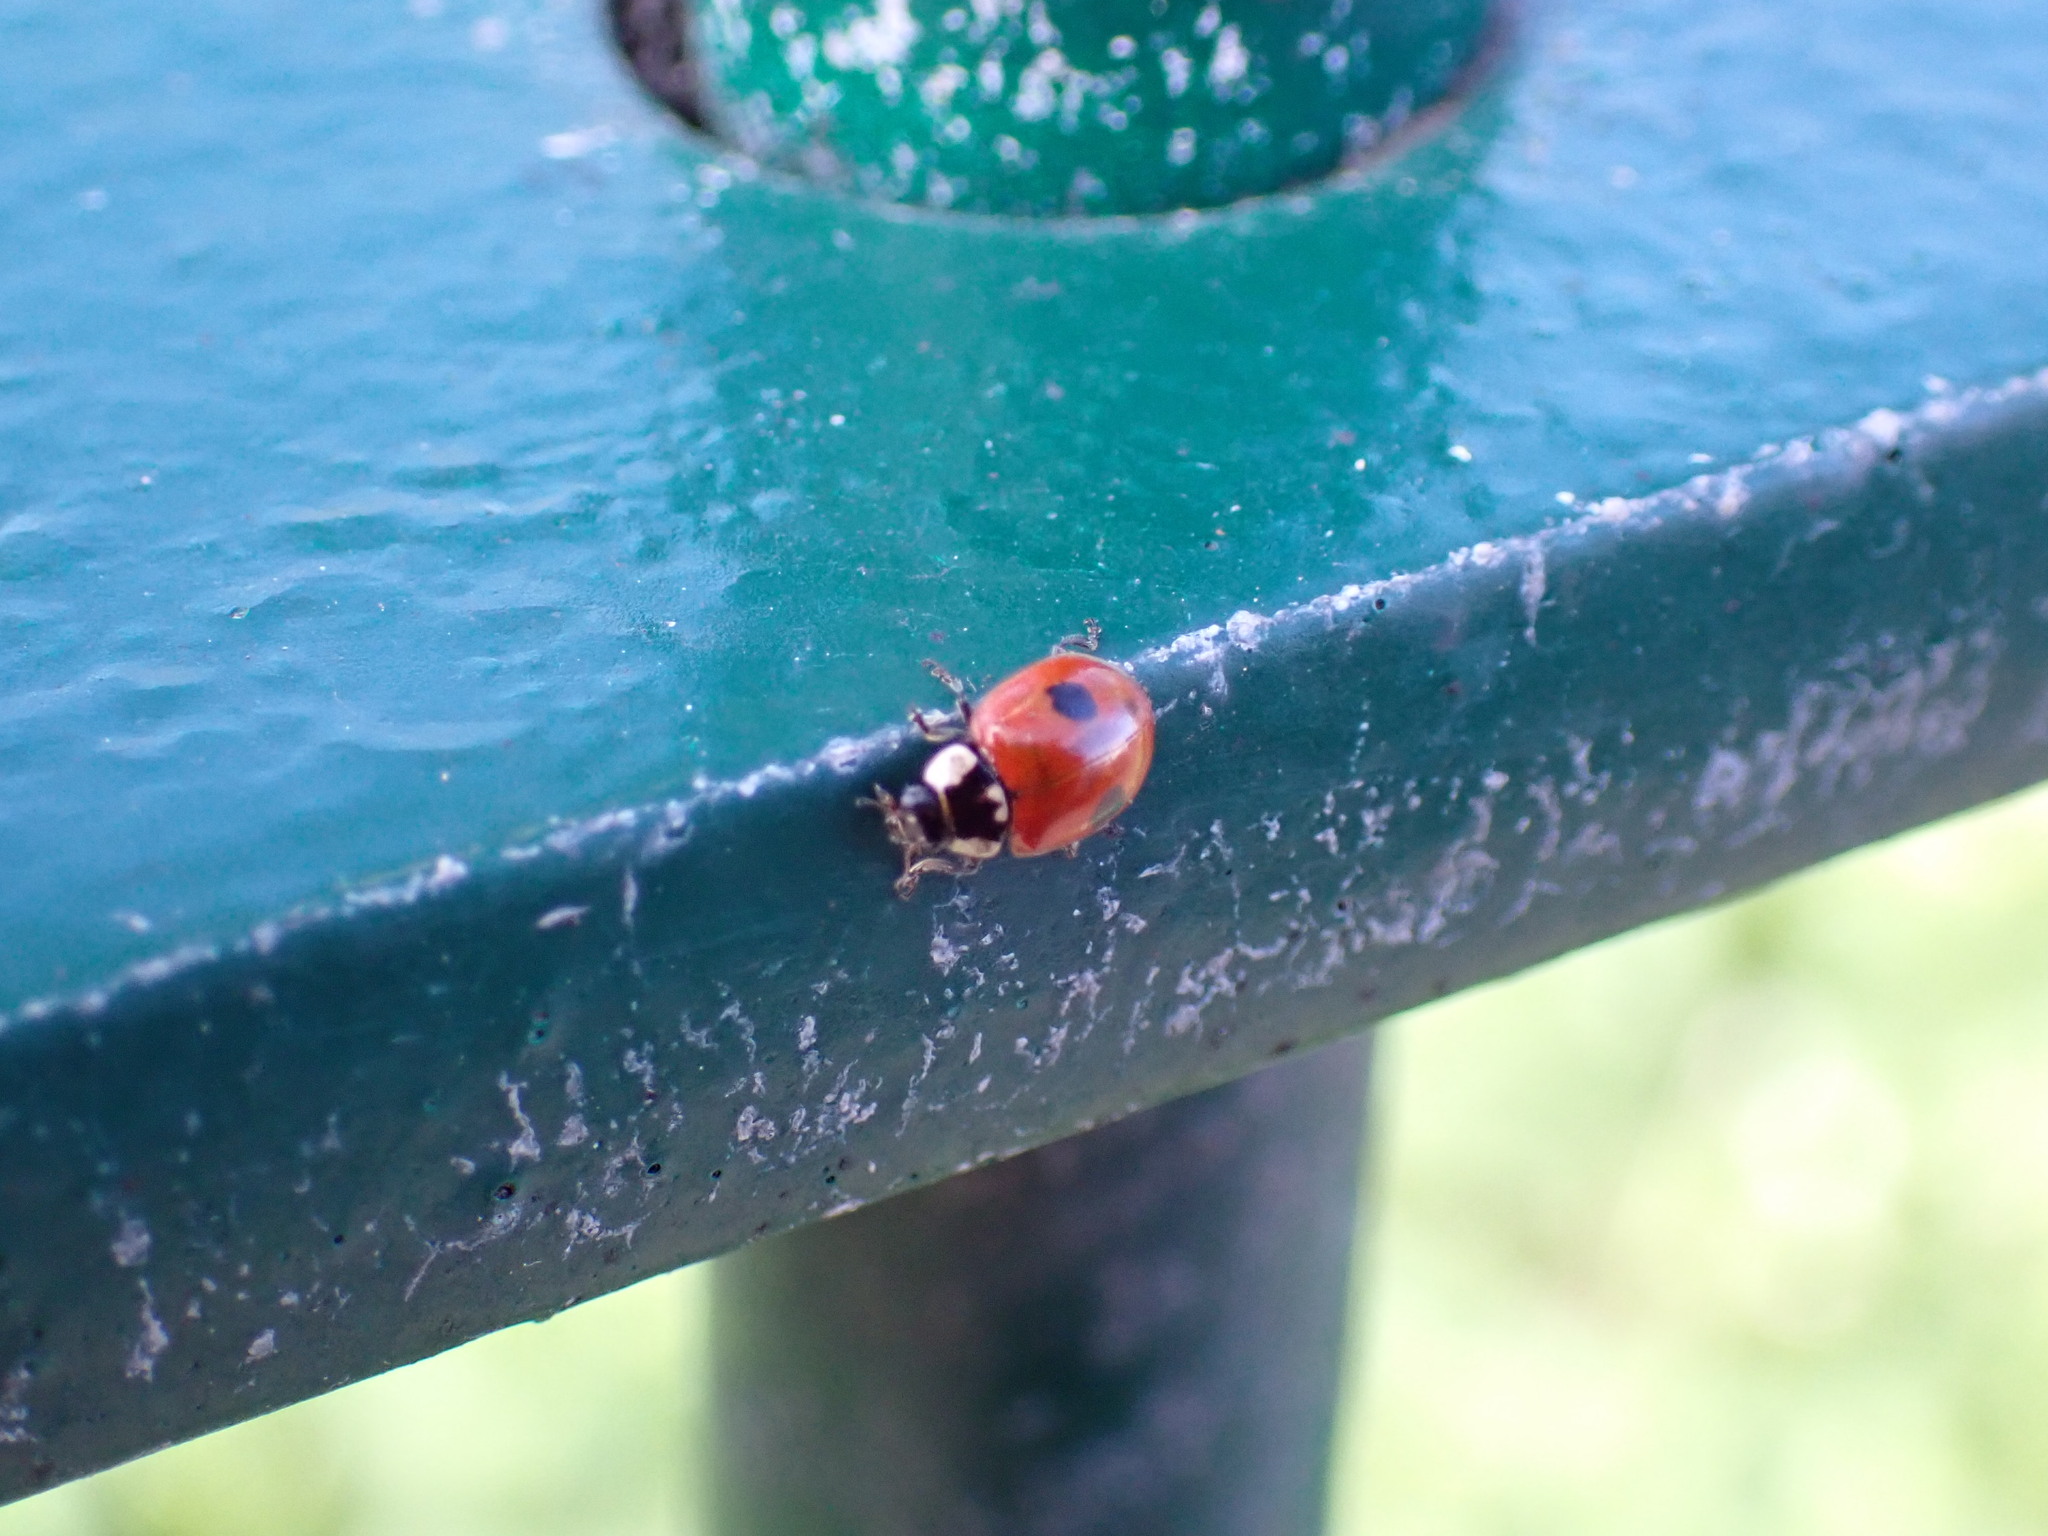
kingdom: Animalia
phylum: Arthropoda
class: Insecta
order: Coleoptera
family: Coccinellidae
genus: Adalia
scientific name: Adalia bipunctata
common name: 2-spot ladybird
